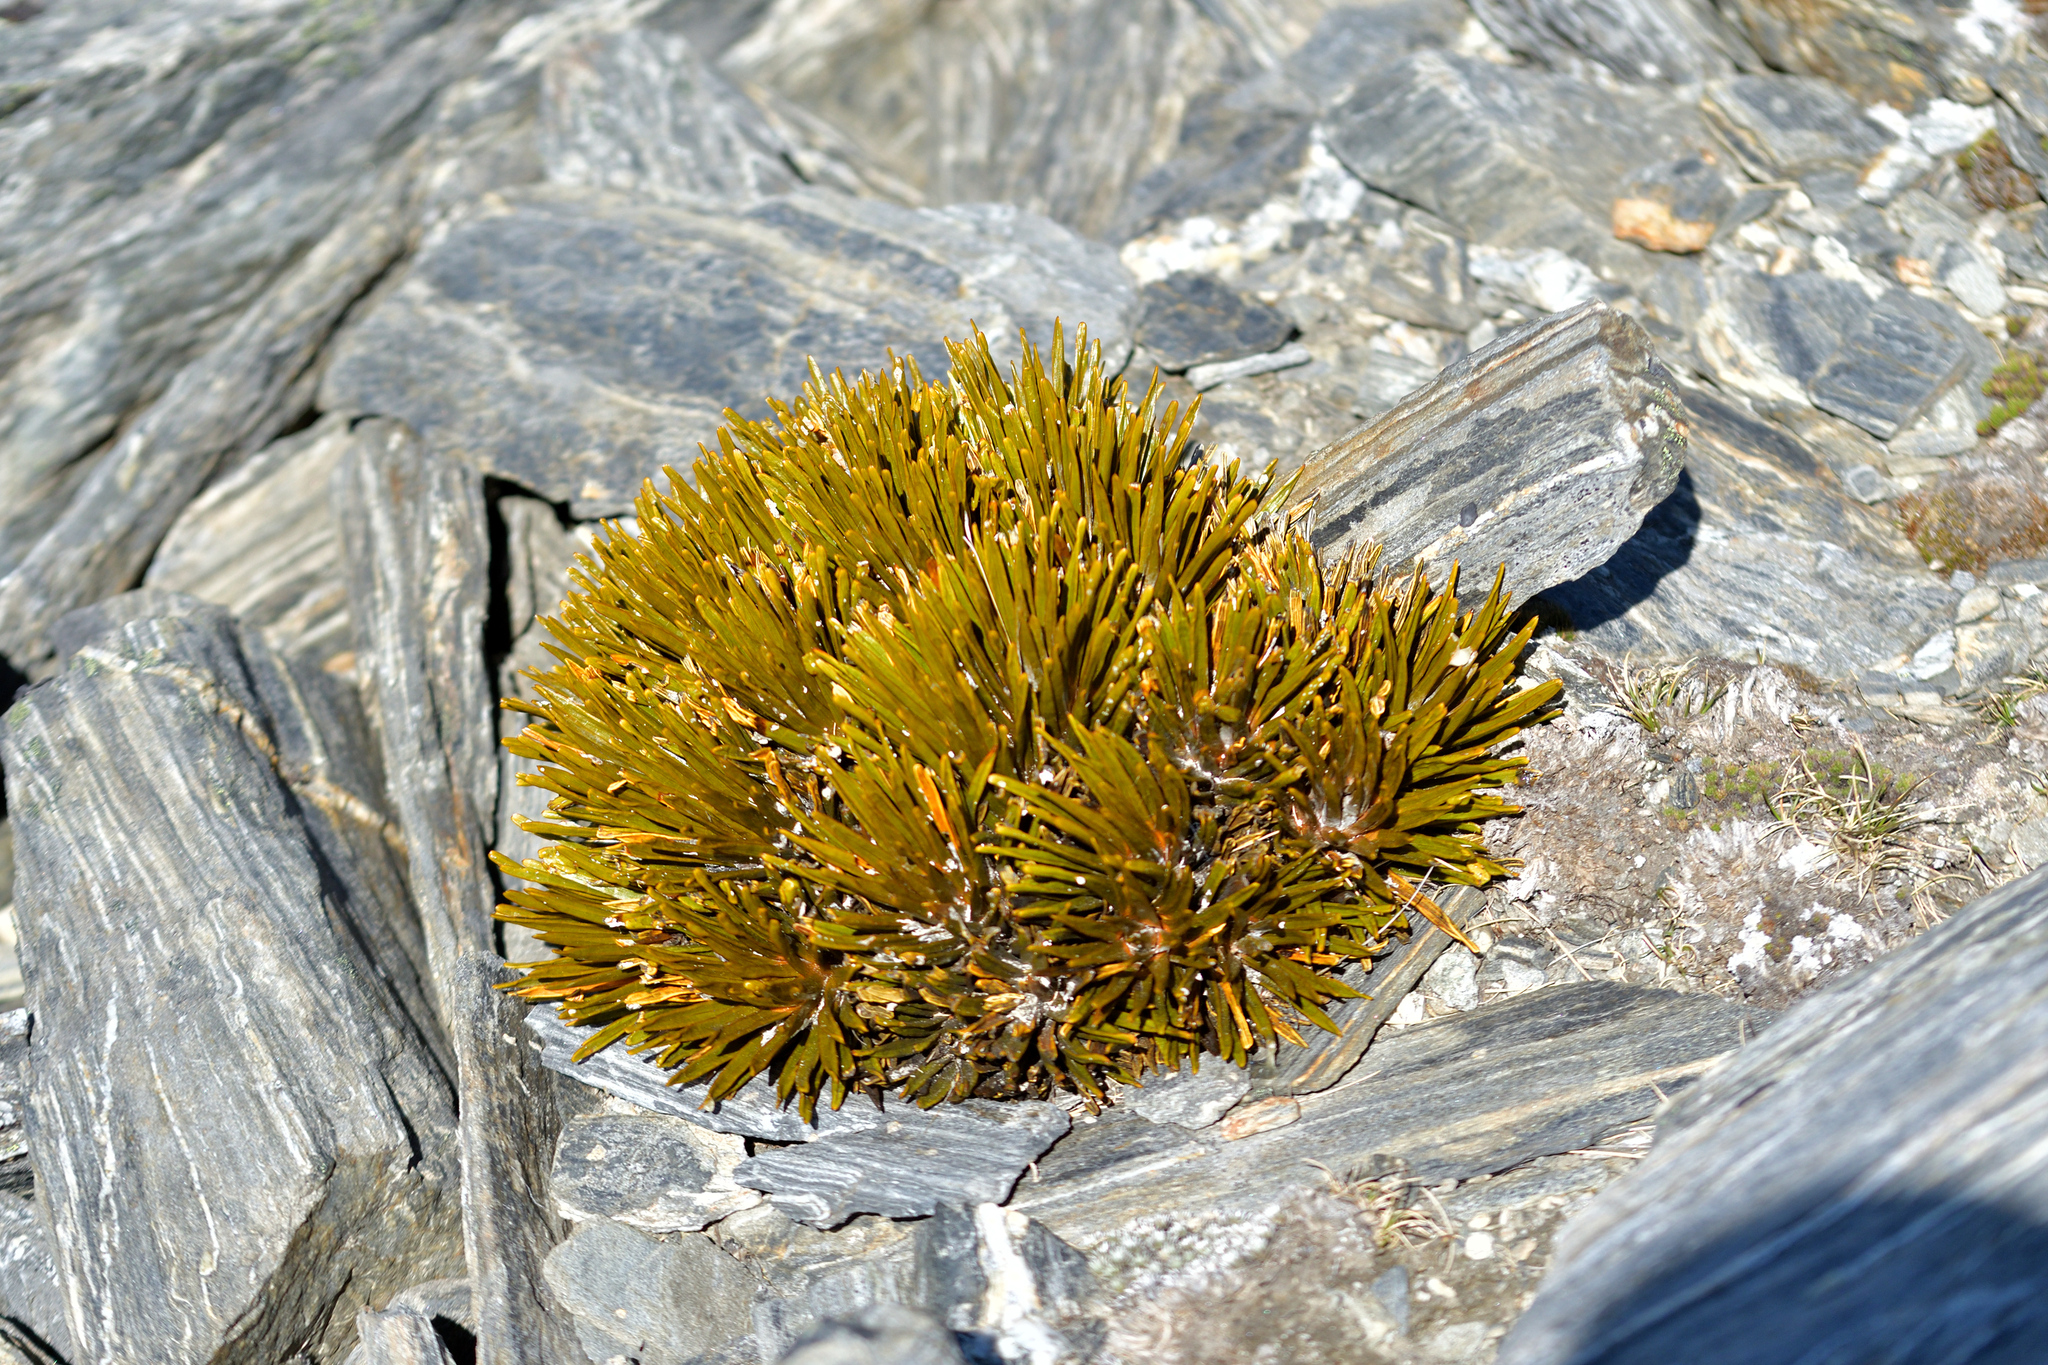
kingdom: Plantae
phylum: Tracheophyta
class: Magnoliopsida
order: Apiales
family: Apiaceae
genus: Aciphylla
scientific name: Aciphylla simplex
